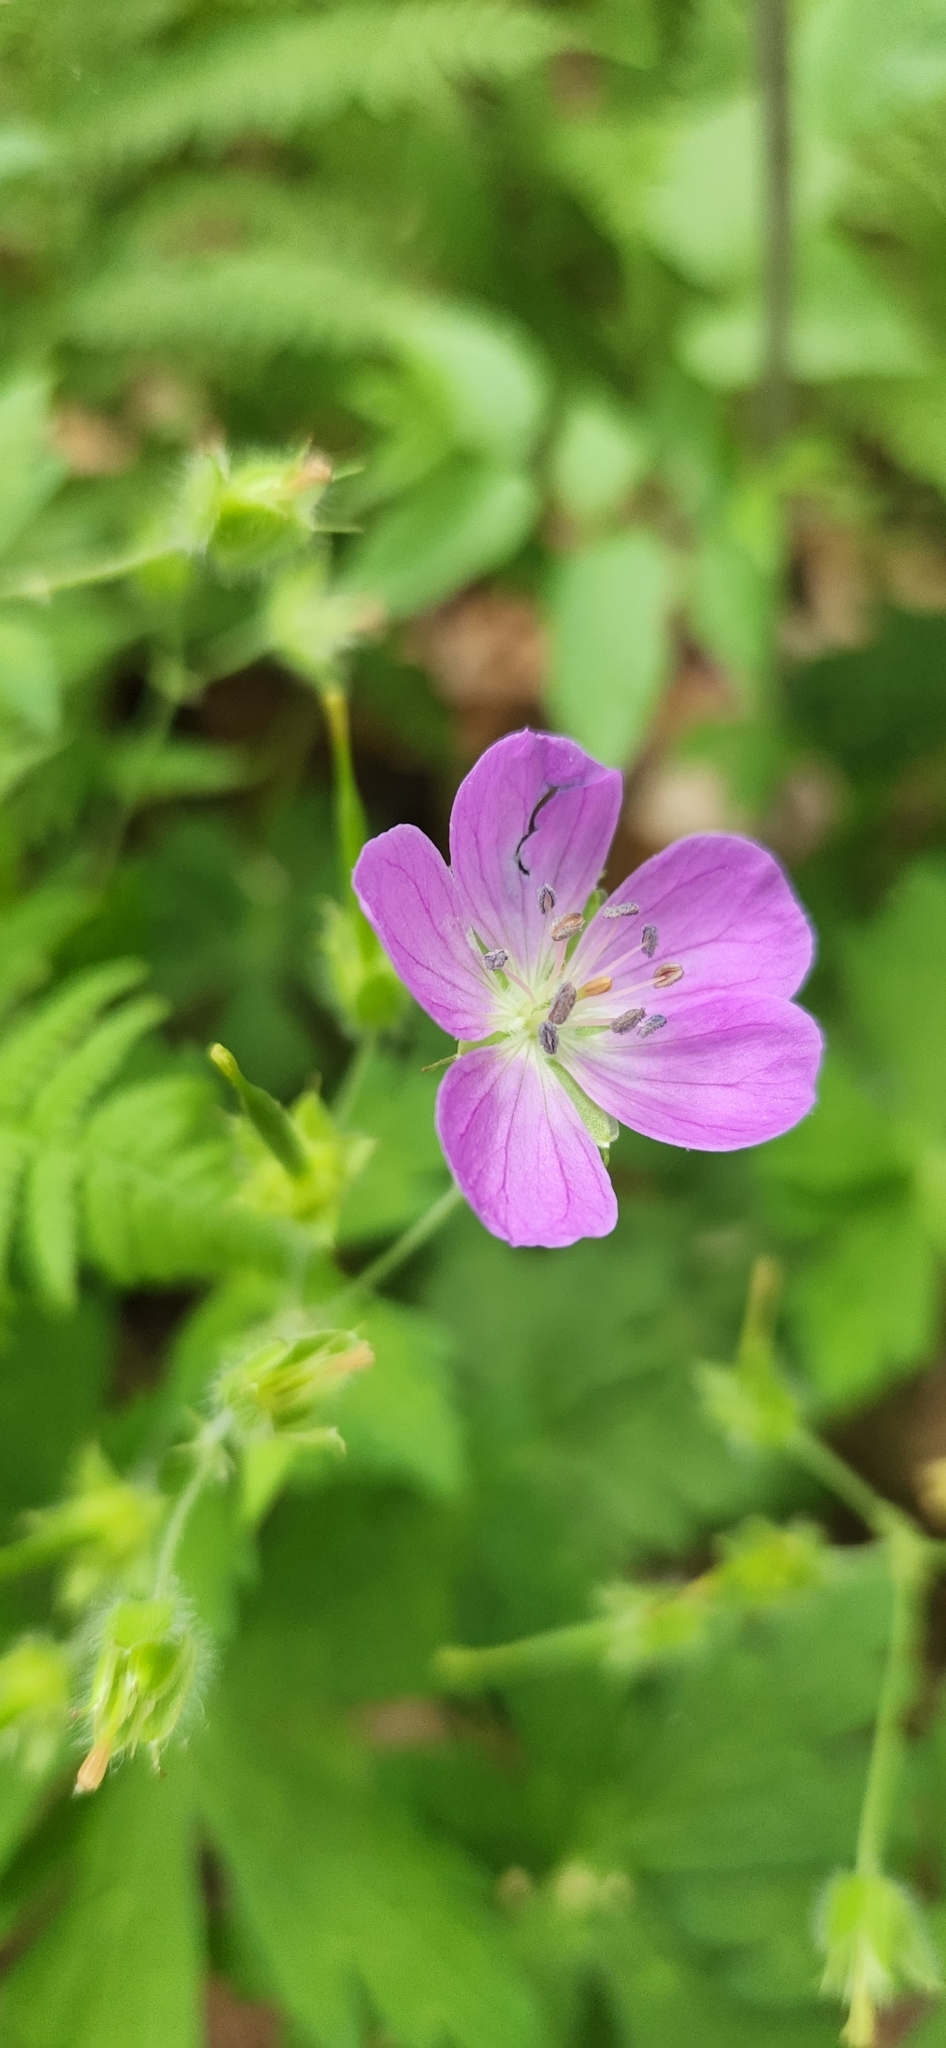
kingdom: Plantae
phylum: Tracheophyta
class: Magnoliopsida
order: Geraniales
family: Geraniaceae
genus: Geranium
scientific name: Geranium maculatum
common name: Spotted geranium
